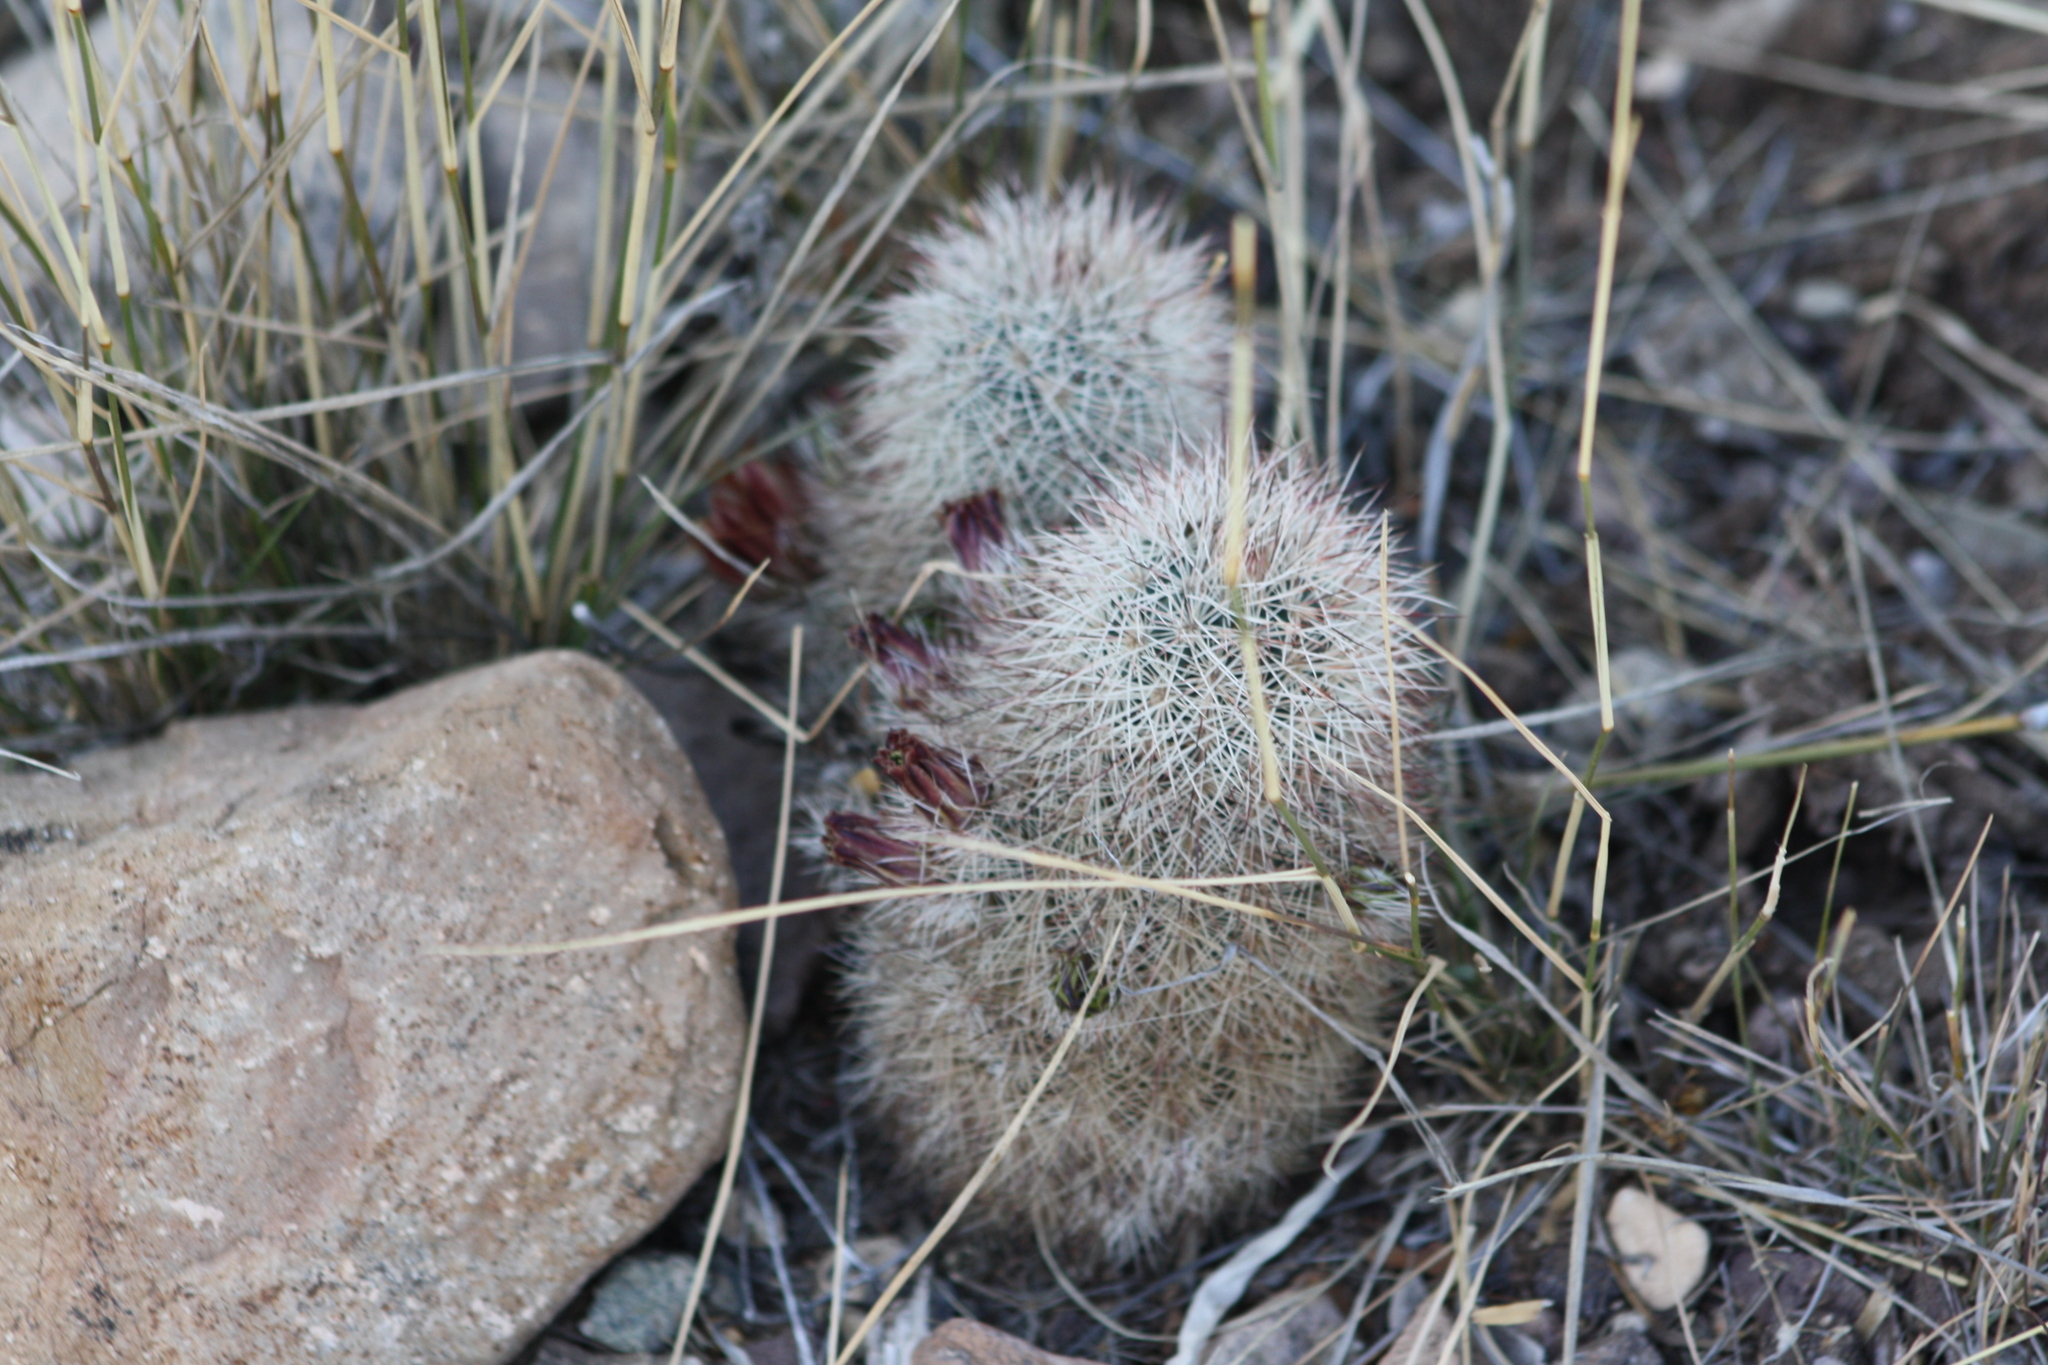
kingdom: Plantae
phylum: Tracheophyta
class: Magnoliopsida
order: Caryophyllales
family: Cactaceae
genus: Echinocereus
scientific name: Echinocereus russanthus
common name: Brownspine hedgehog cactus
